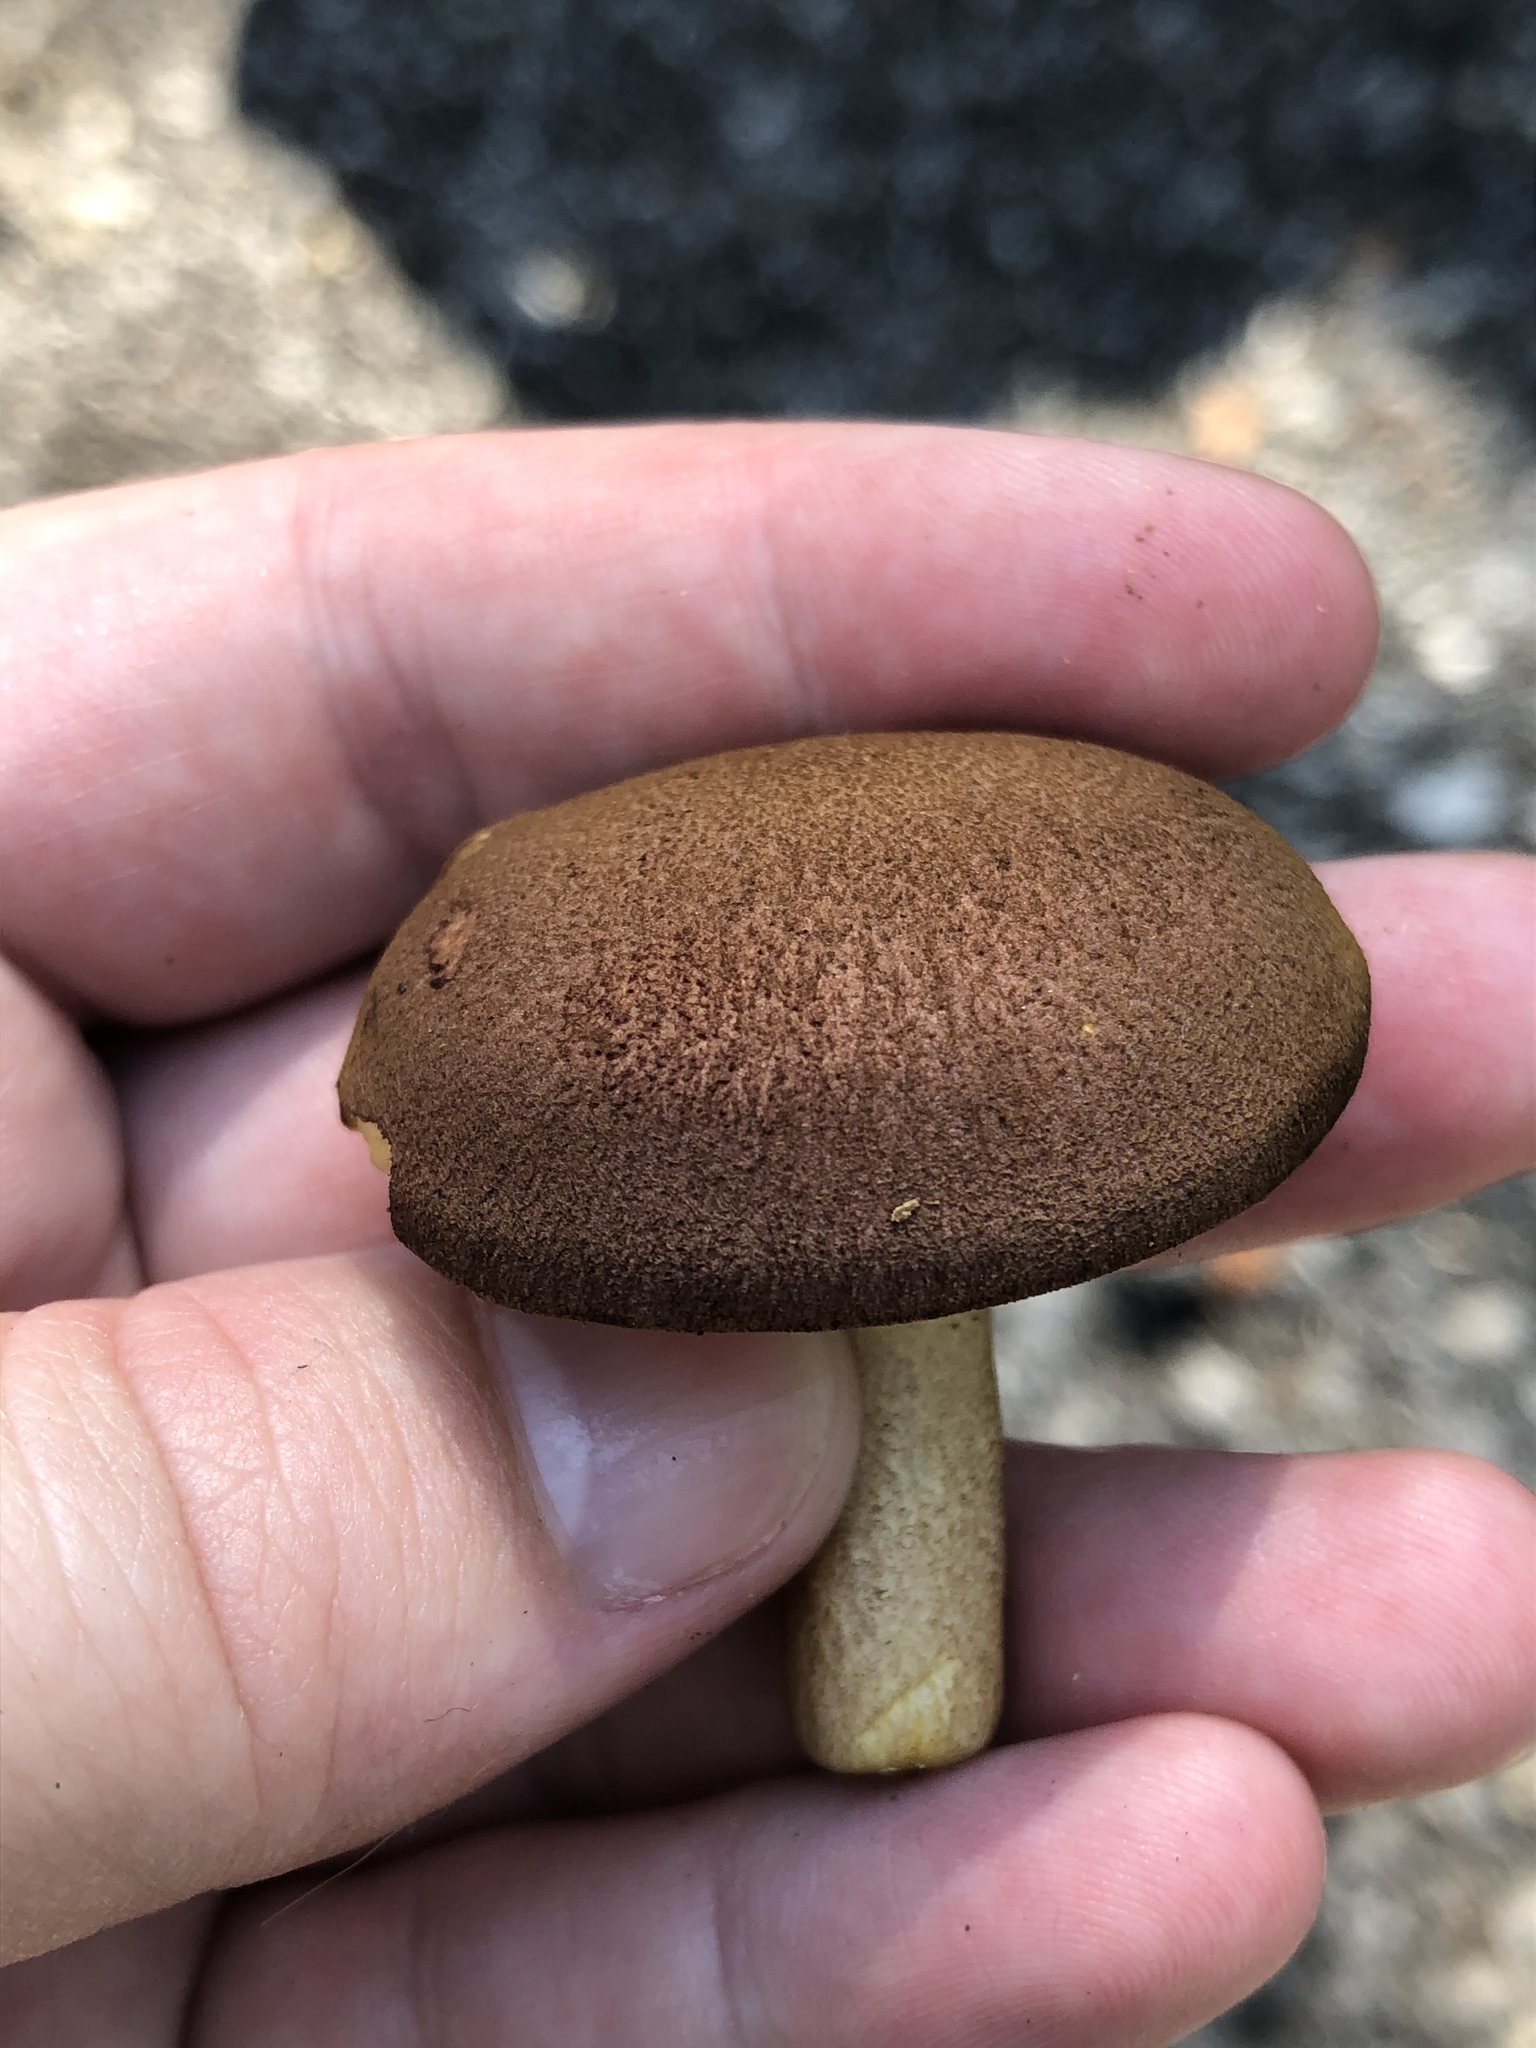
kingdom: Fungi
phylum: Basidiomycota
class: Agaricomycetes
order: Agaricales
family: Tricholomataceae
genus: Tricholomopsis
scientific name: Tricholomopsis rutilans
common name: Plums and custard
